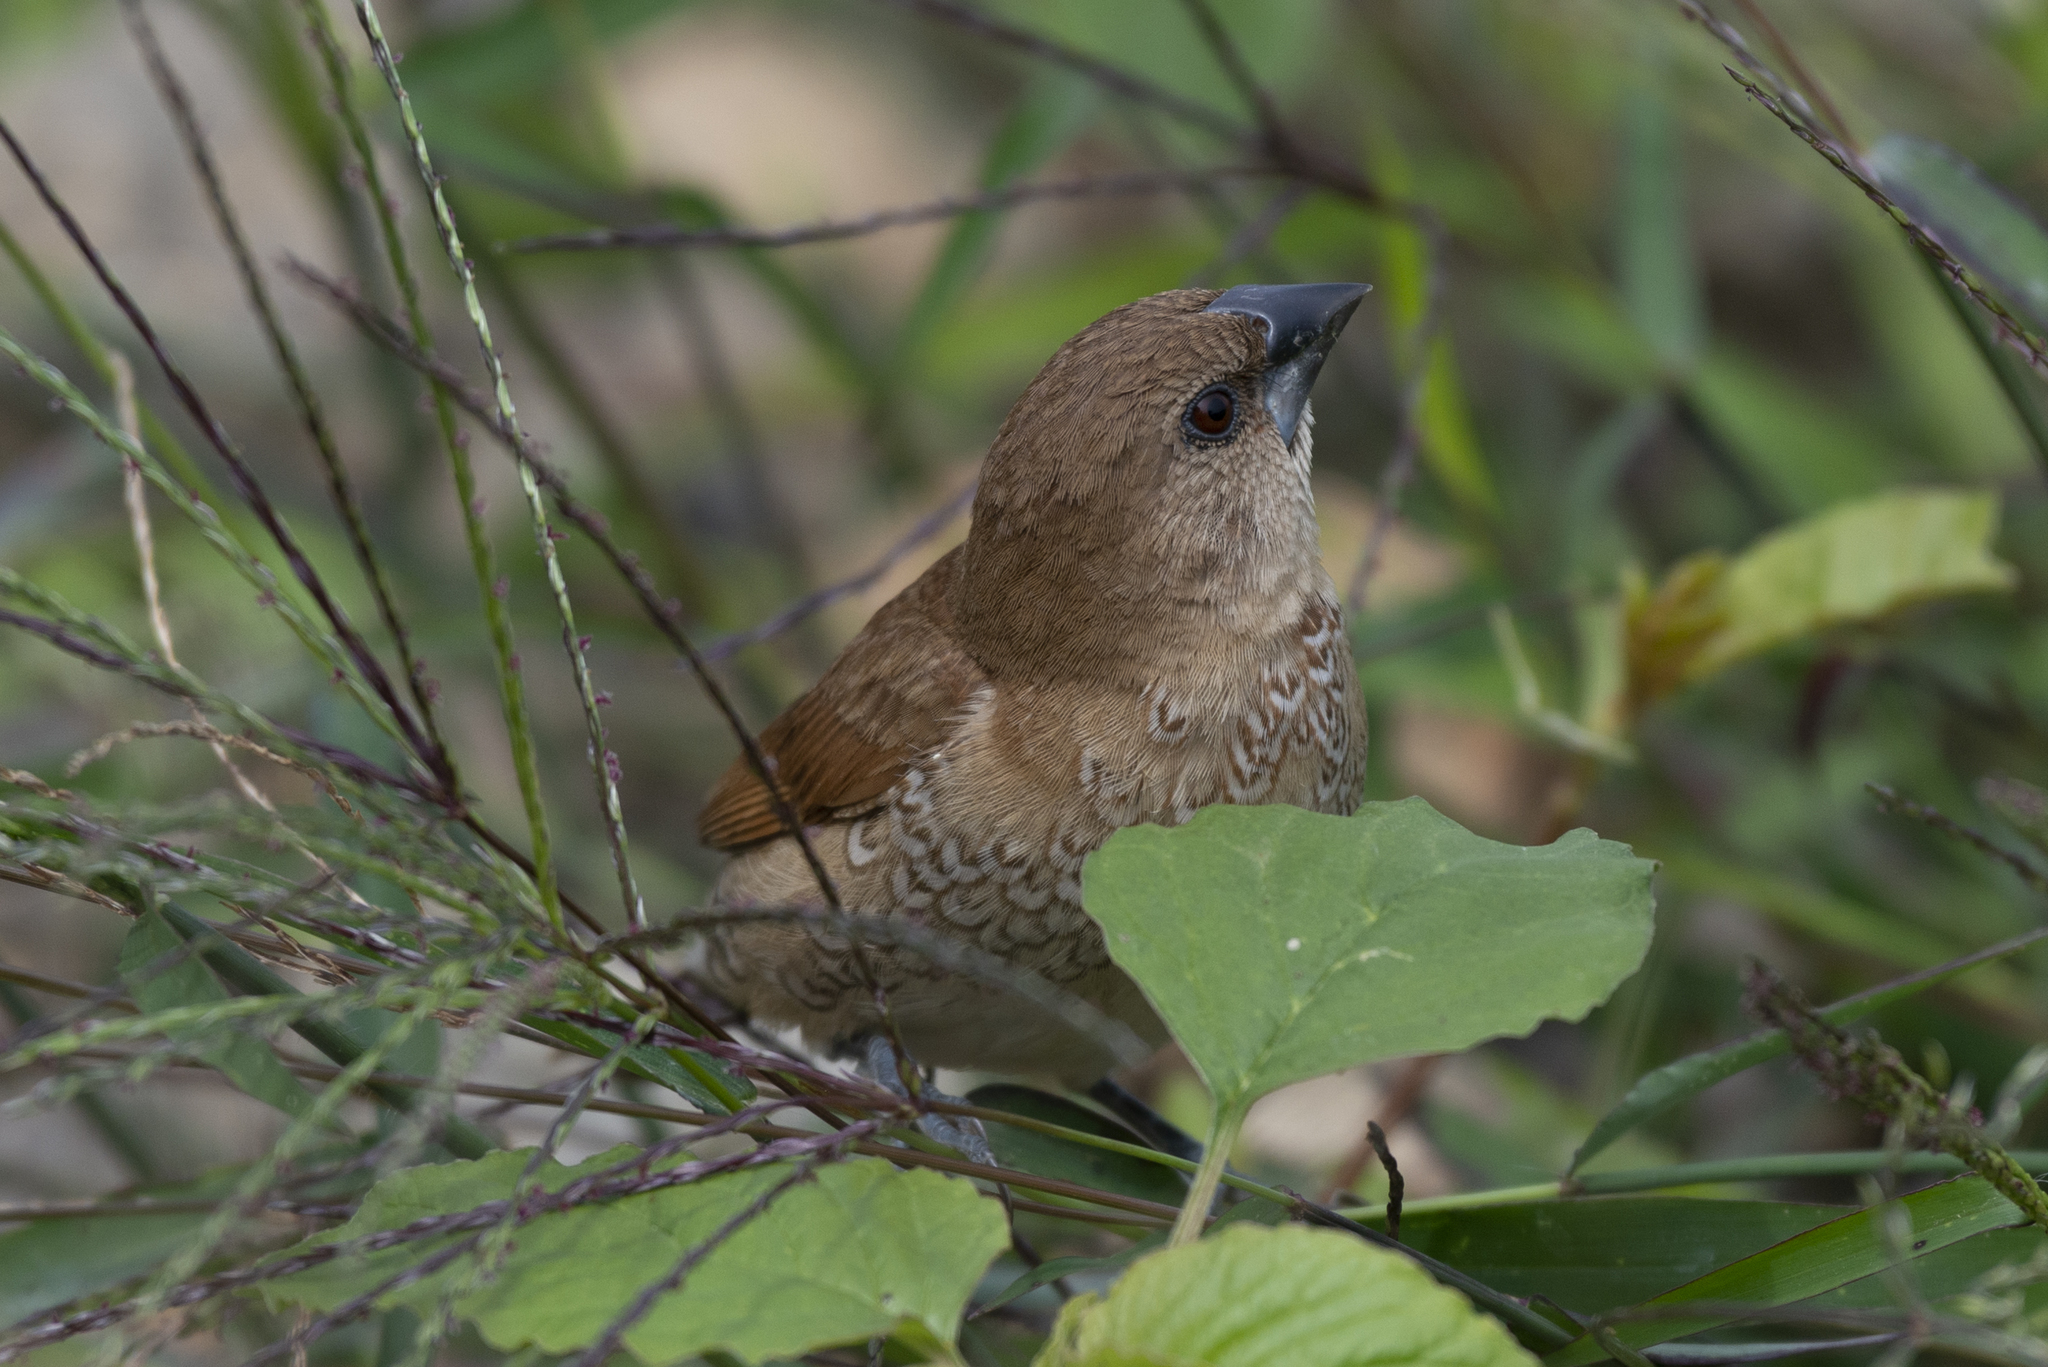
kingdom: Animalia
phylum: Chordata
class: Aves
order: Passeriformes
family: Estrildidae
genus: Lonchura
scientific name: Lonchura punctulata
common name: Scaly-breasted munia
